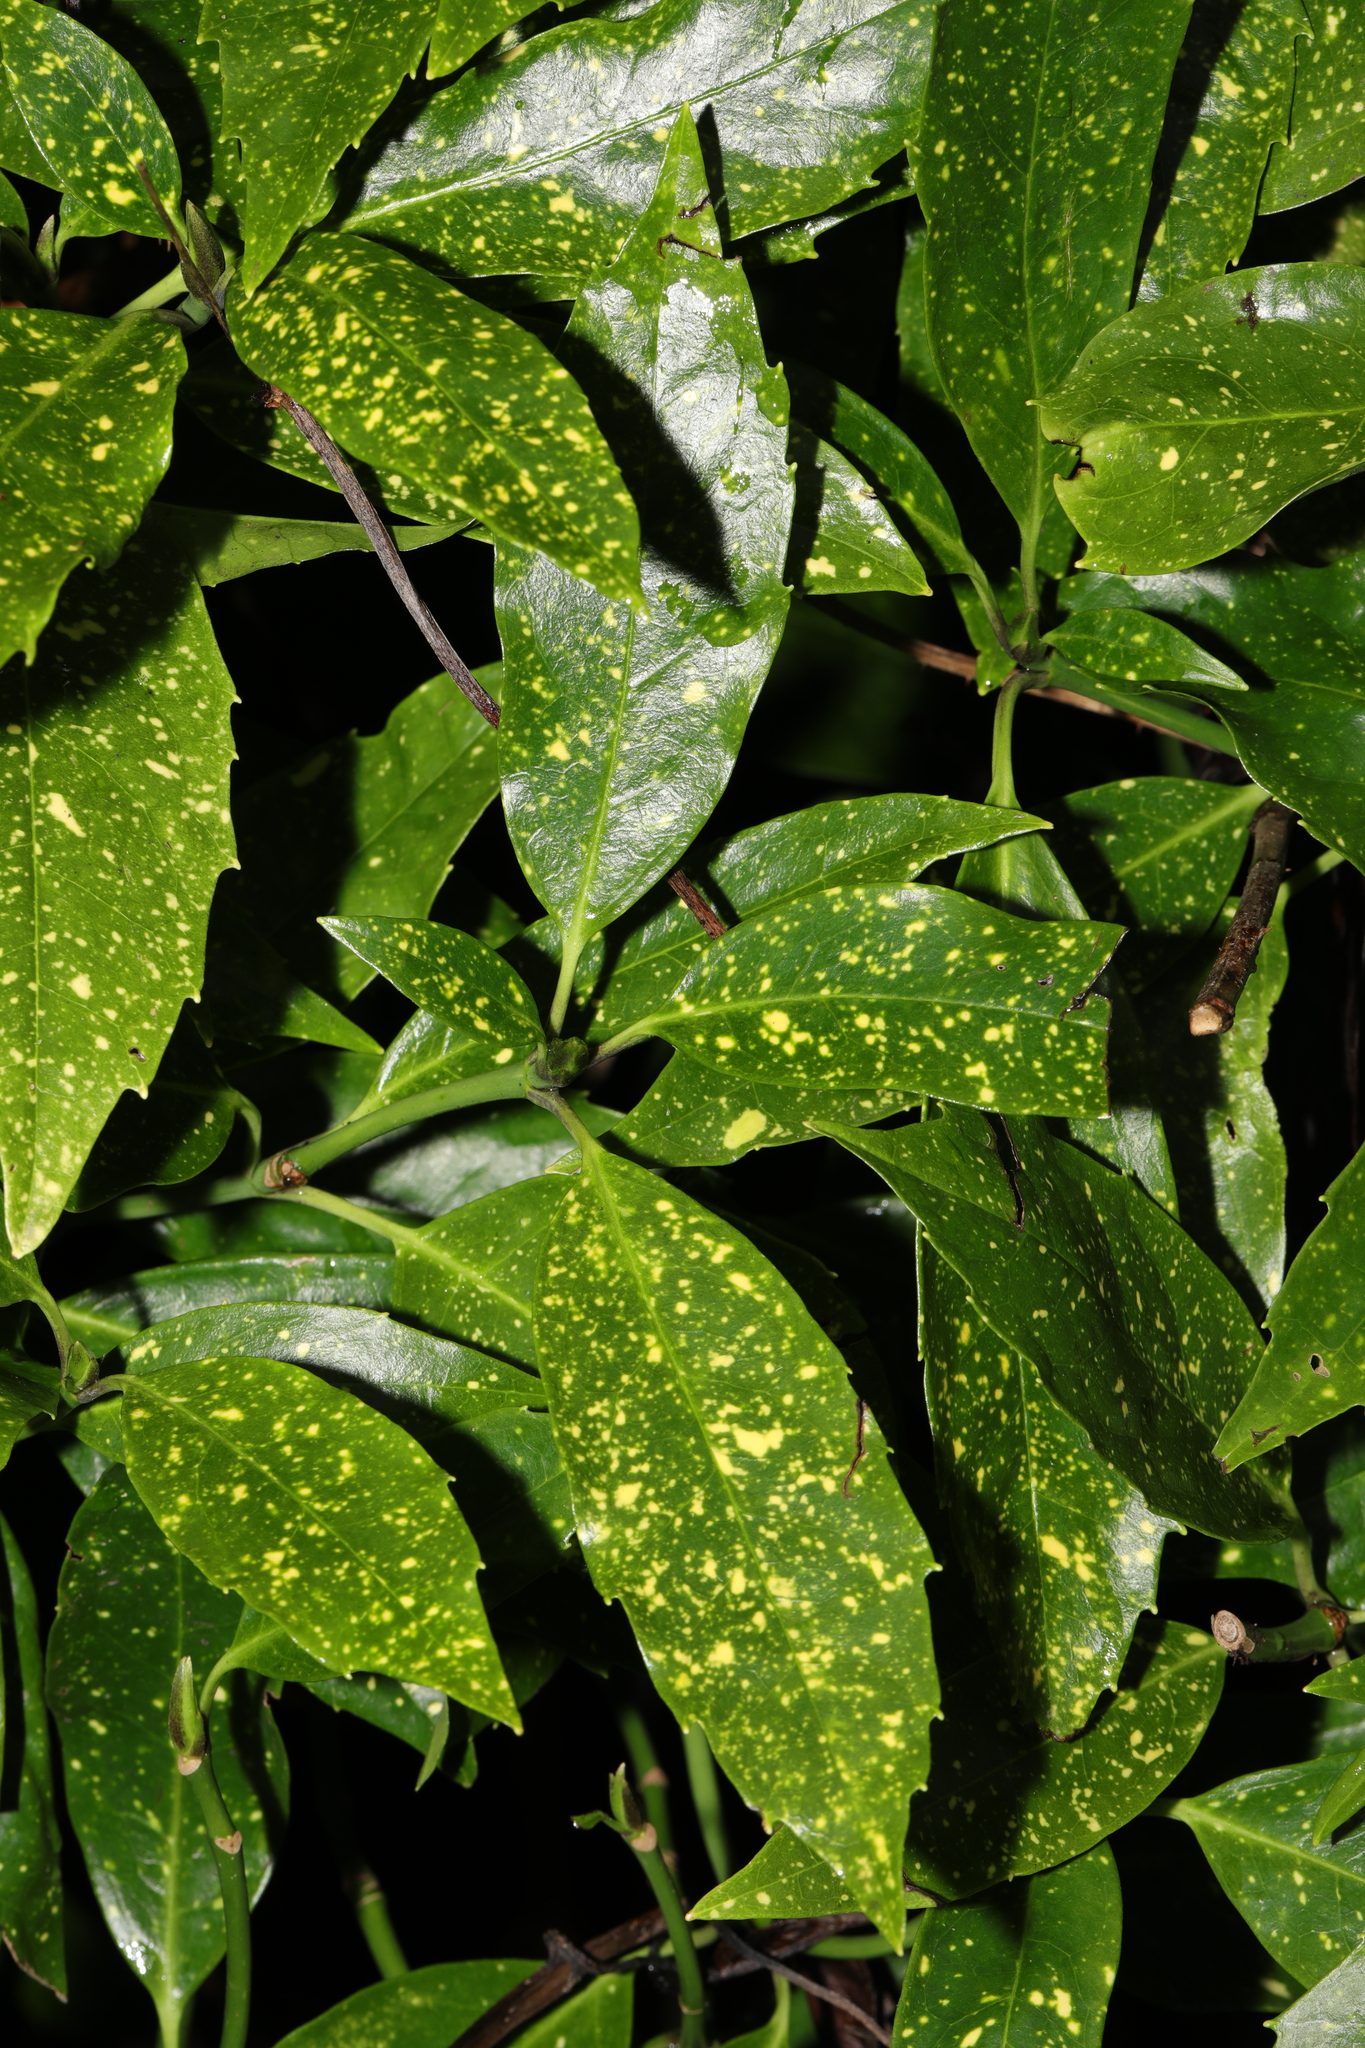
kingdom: Plantae
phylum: Tracheophyta
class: Magnoliopsida
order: Garryales
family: Garryaceae
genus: Aucuba
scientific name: Aucuba japonica
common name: Spotted-laurel
